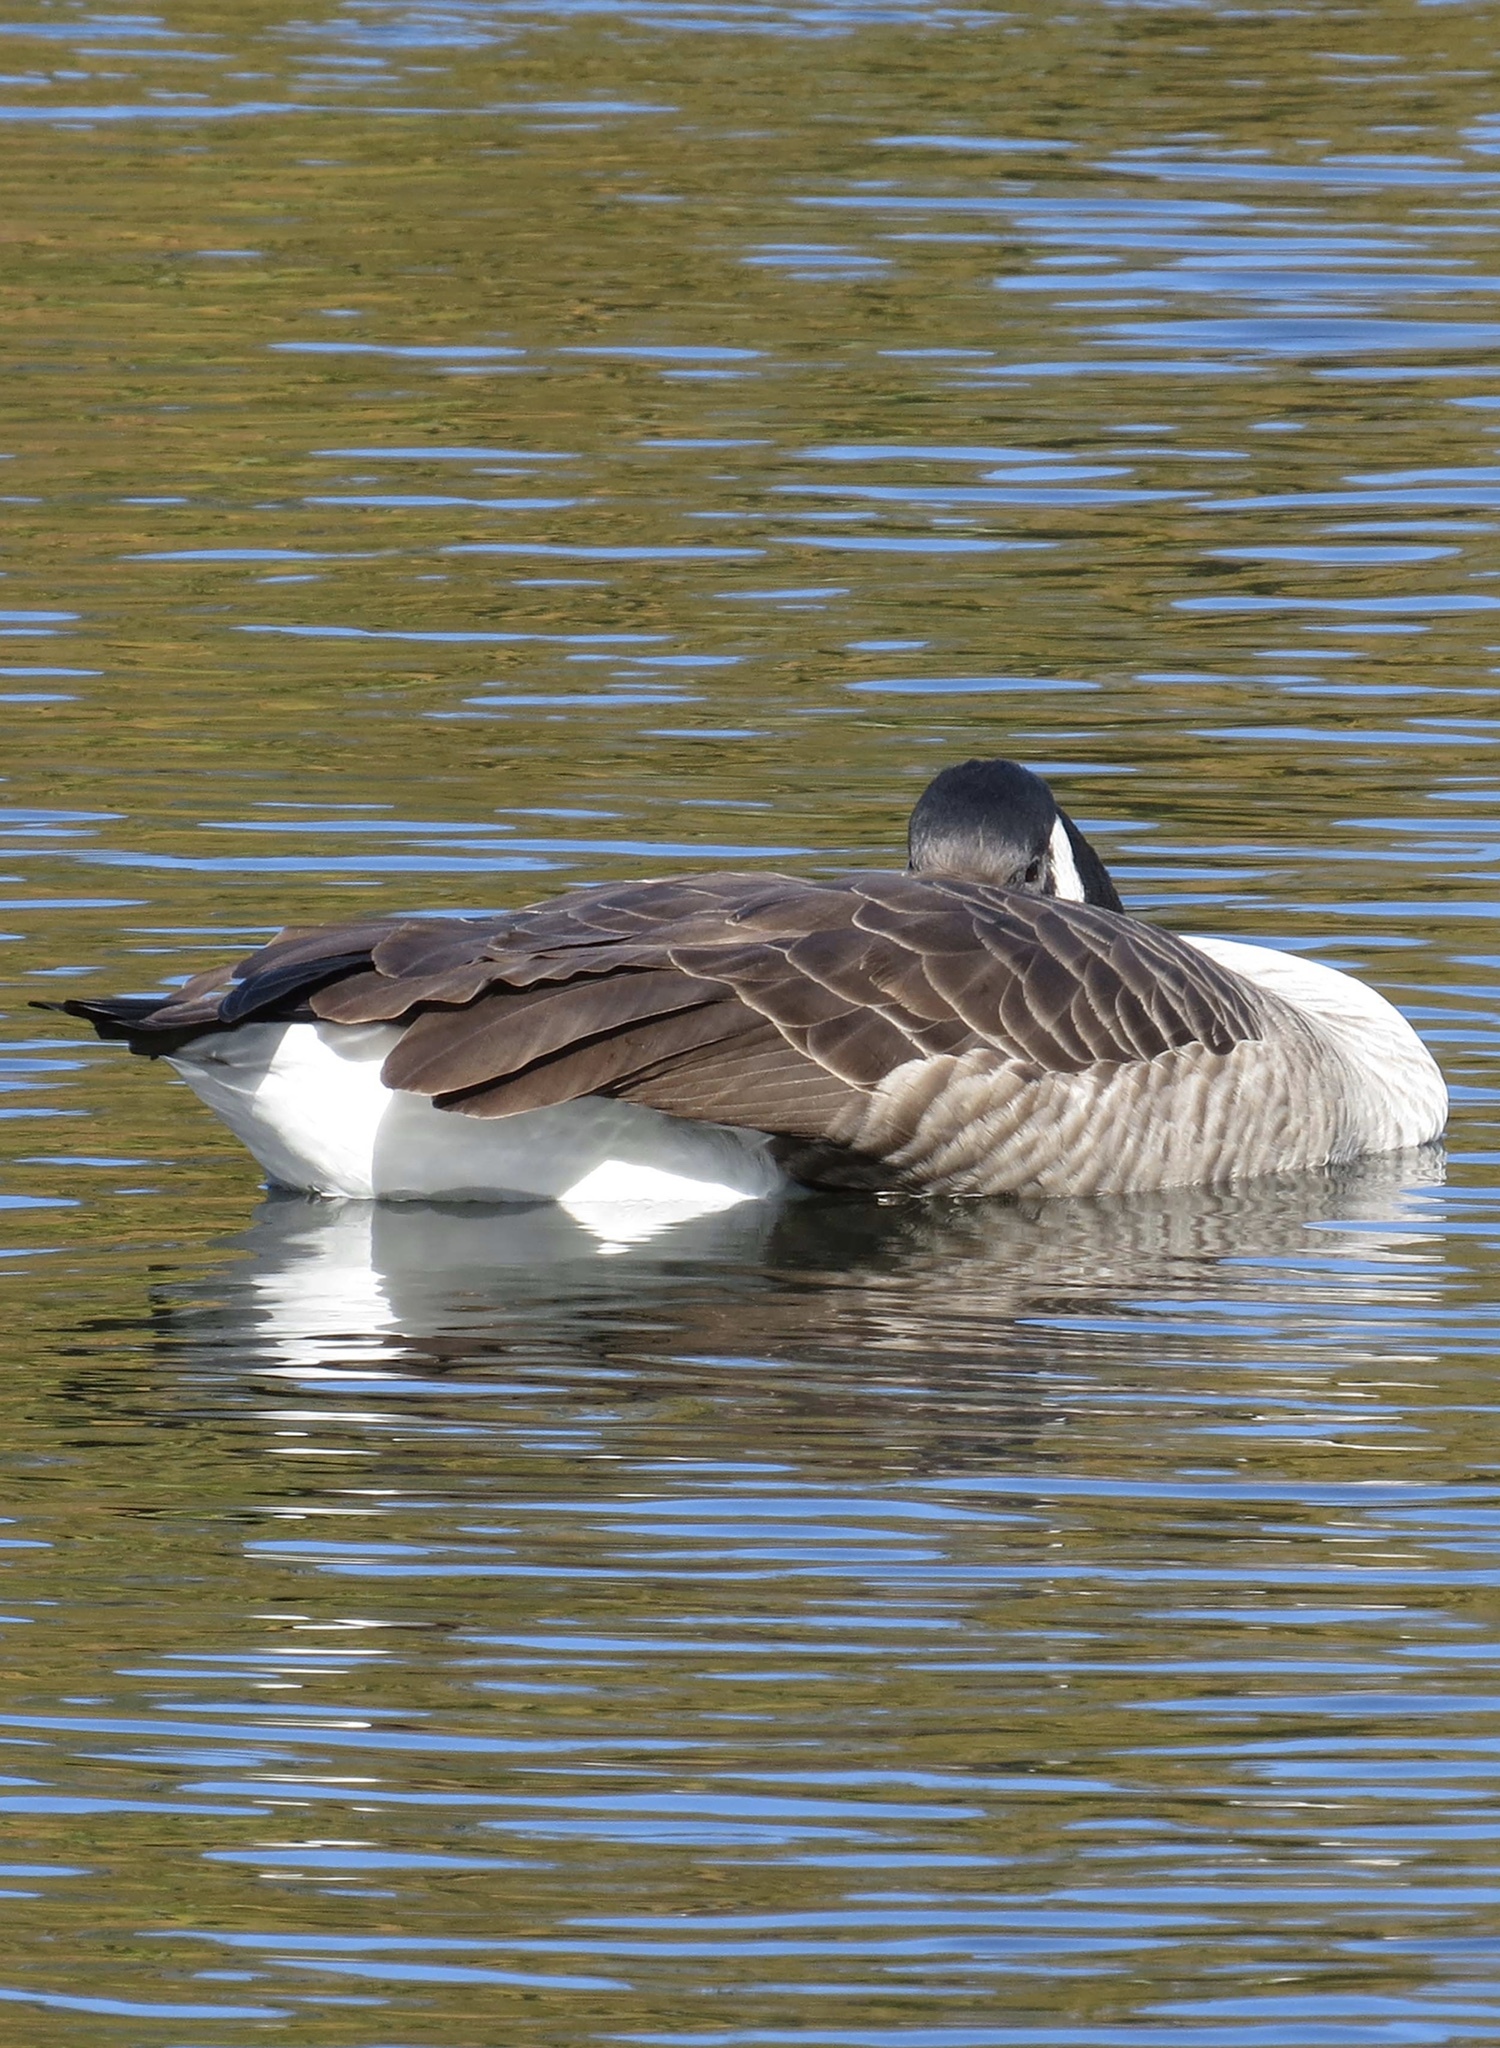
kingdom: Animalia
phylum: Chordata
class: Aves
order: Anseriformes
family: Anatidae
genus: Branta
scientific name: Branta canadensis
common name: Canada goose
